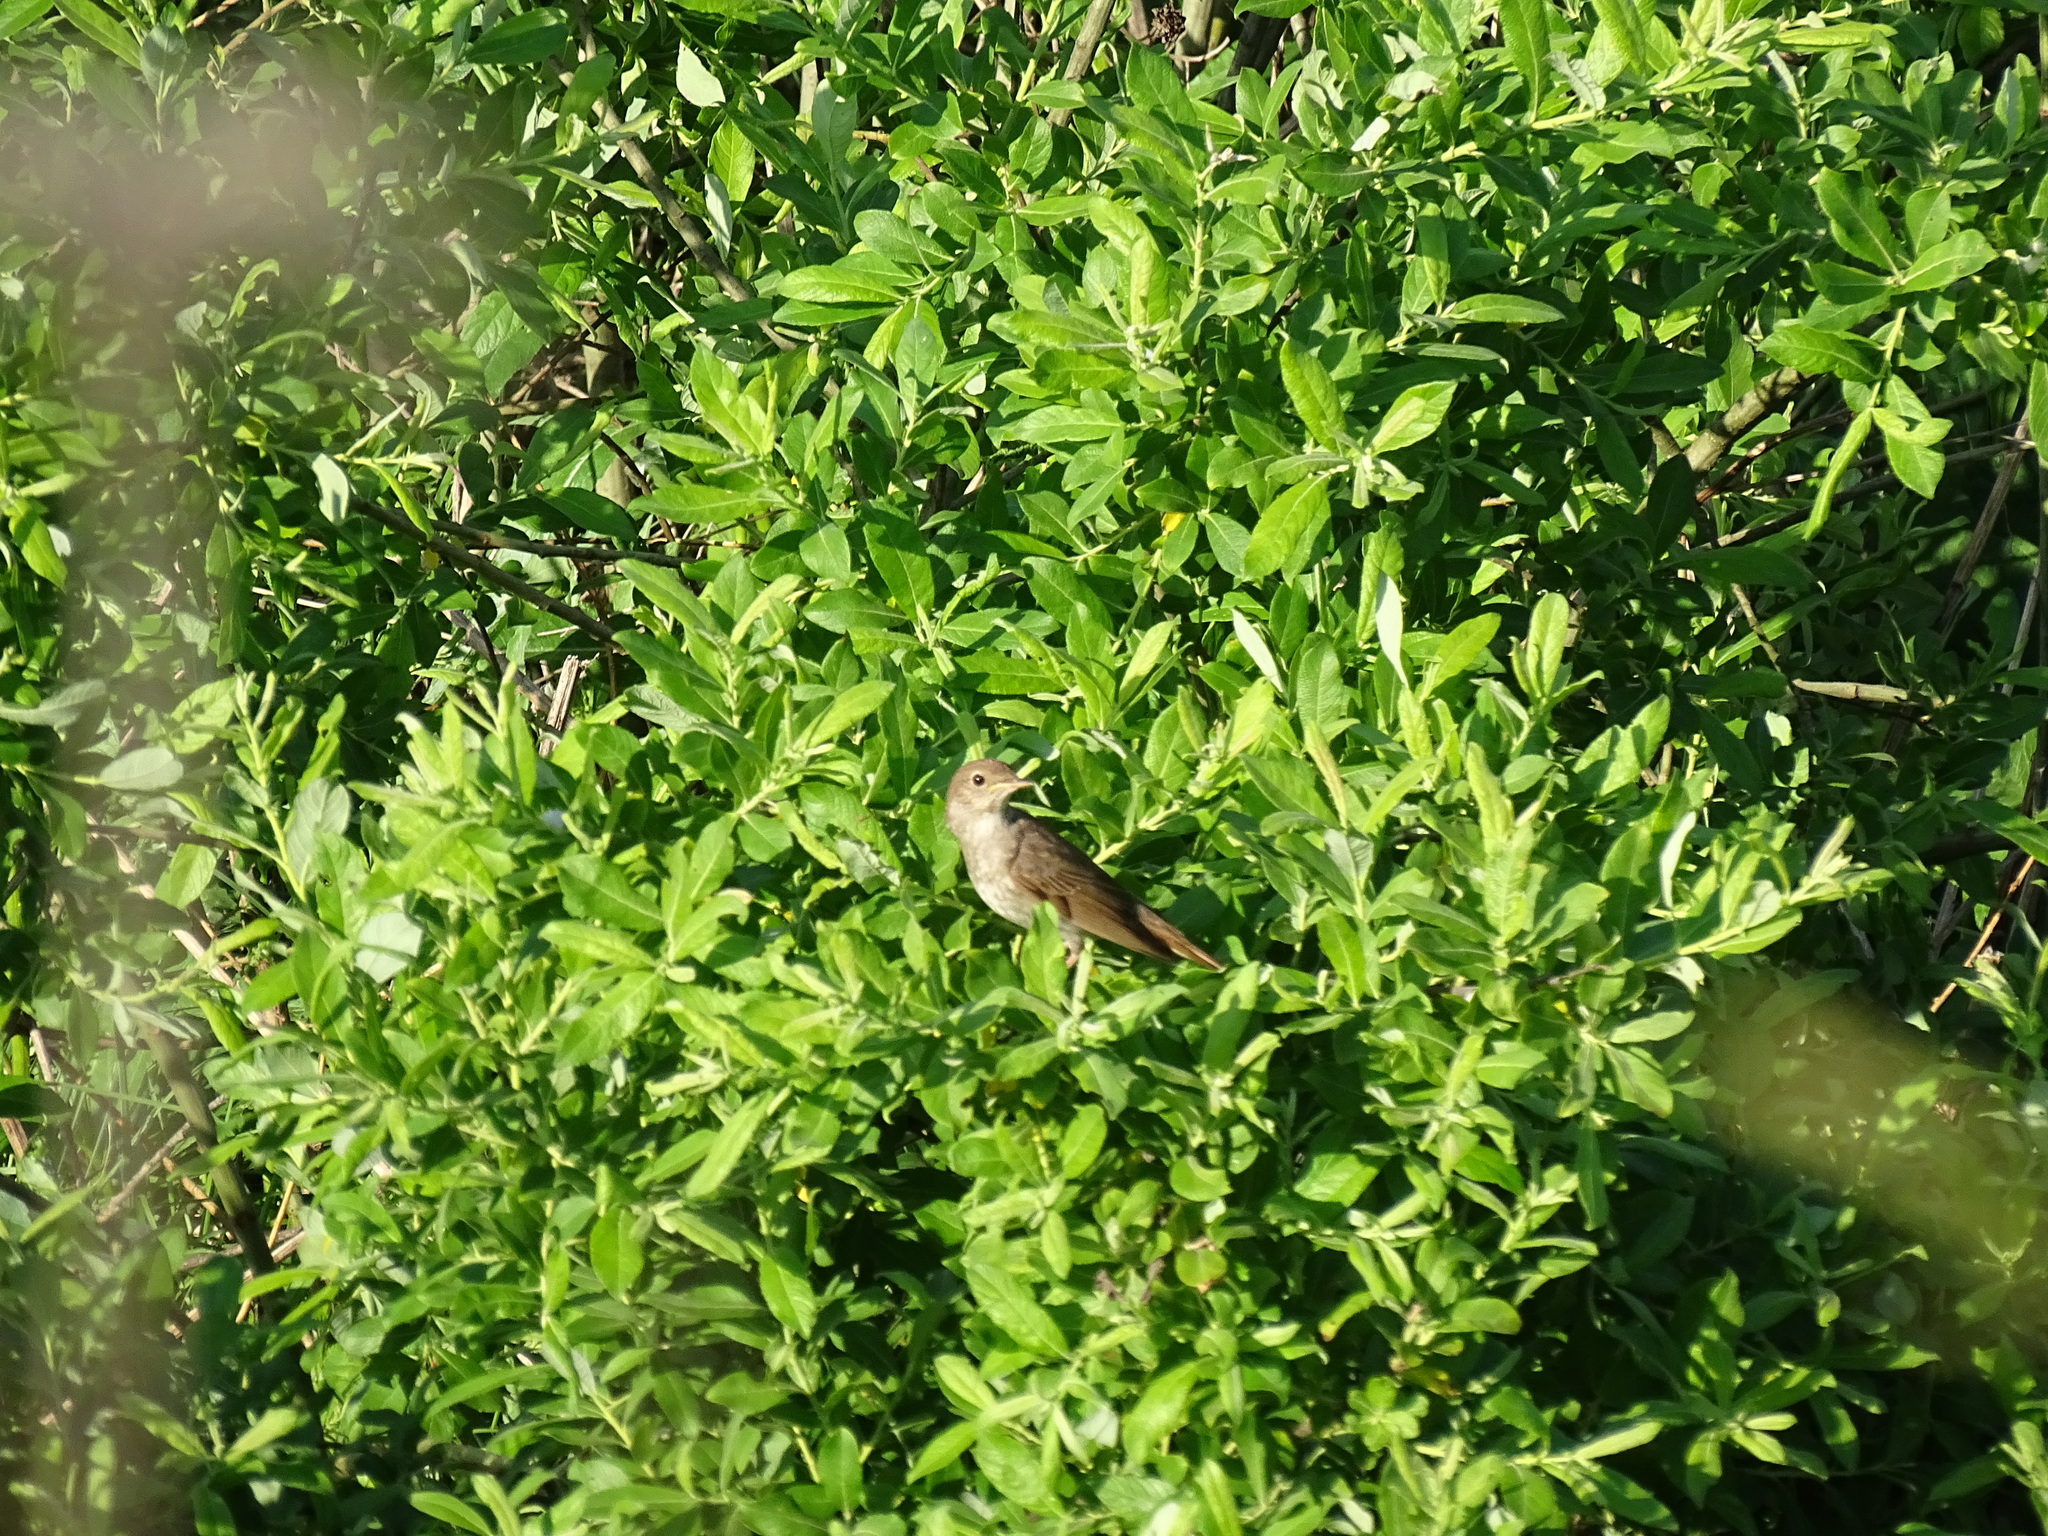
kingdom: Animalia
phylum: Chordata
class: Aves
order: Passeriformes
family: Muscicapidae
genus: Luscinia
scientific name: Luscinia luscinia
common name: Thrush nightingale
